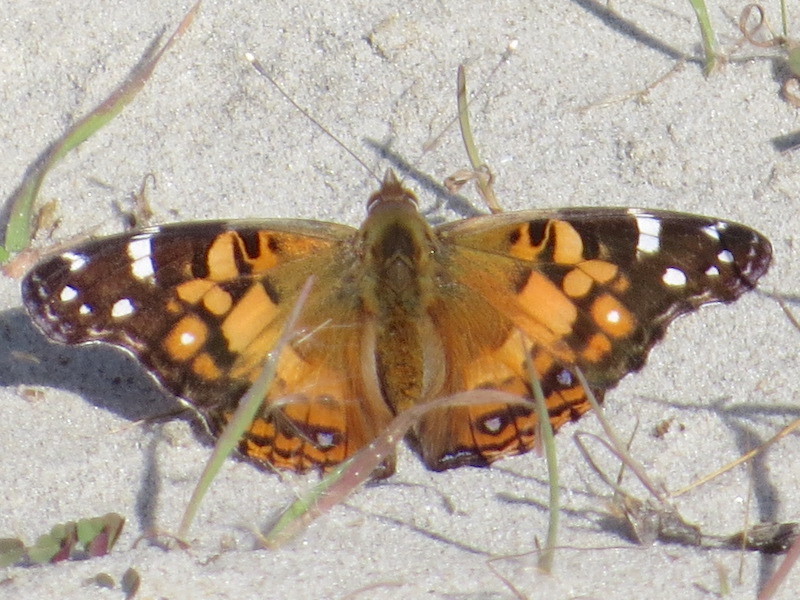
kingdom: Animalia
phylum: Arthropoda
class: Insecta
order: Lepidoptera
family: Nymphalidae
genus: Vanessa
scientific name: Vanessa virginiensis
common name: American lady
